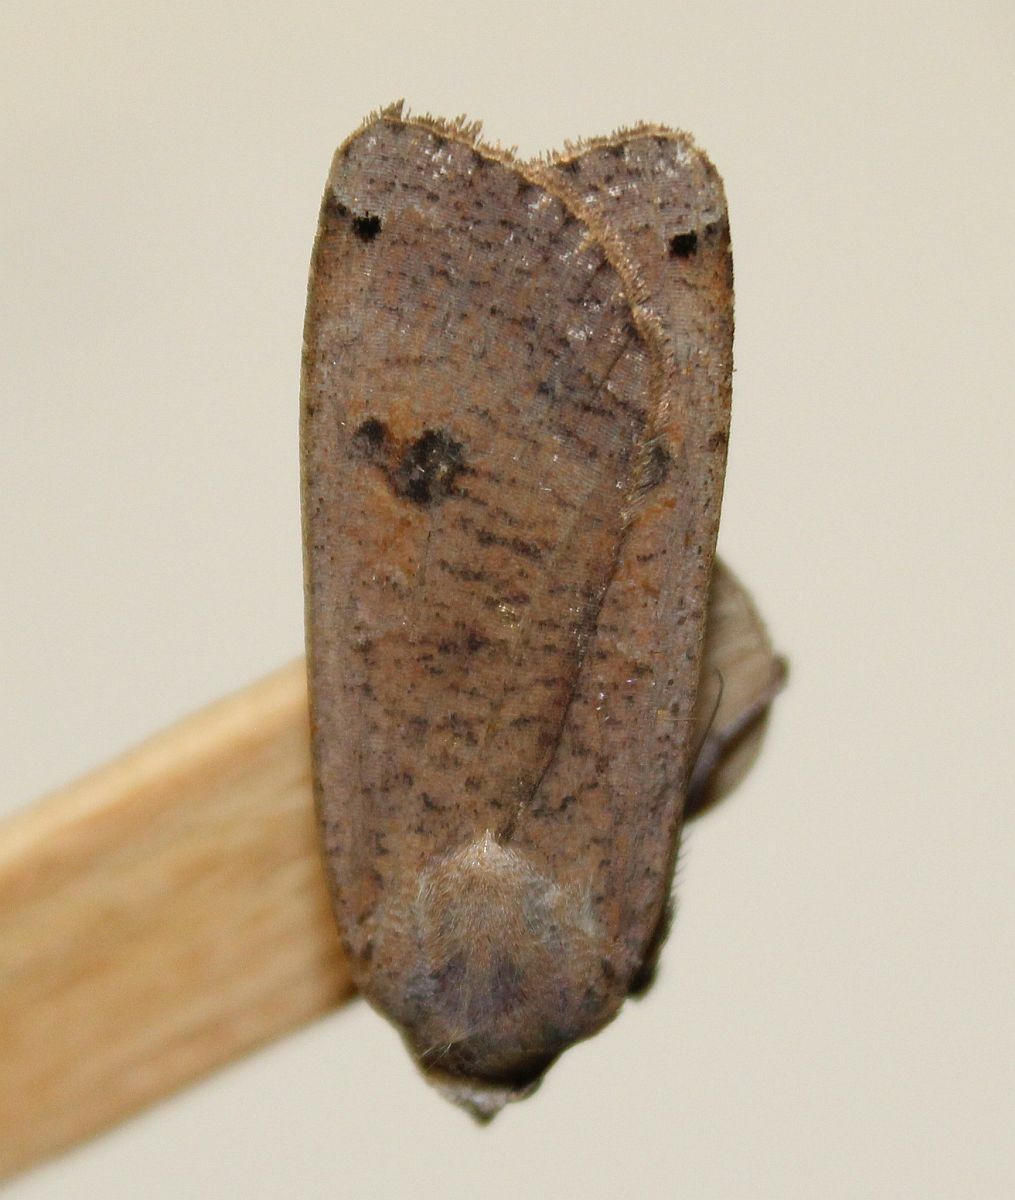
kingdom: Animalia
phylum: Arthropoda
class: Insecta
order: Lepidoptera
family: Noctuidae
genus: Noctua
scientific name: Noctua pronuba
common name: Large yellow underwing
